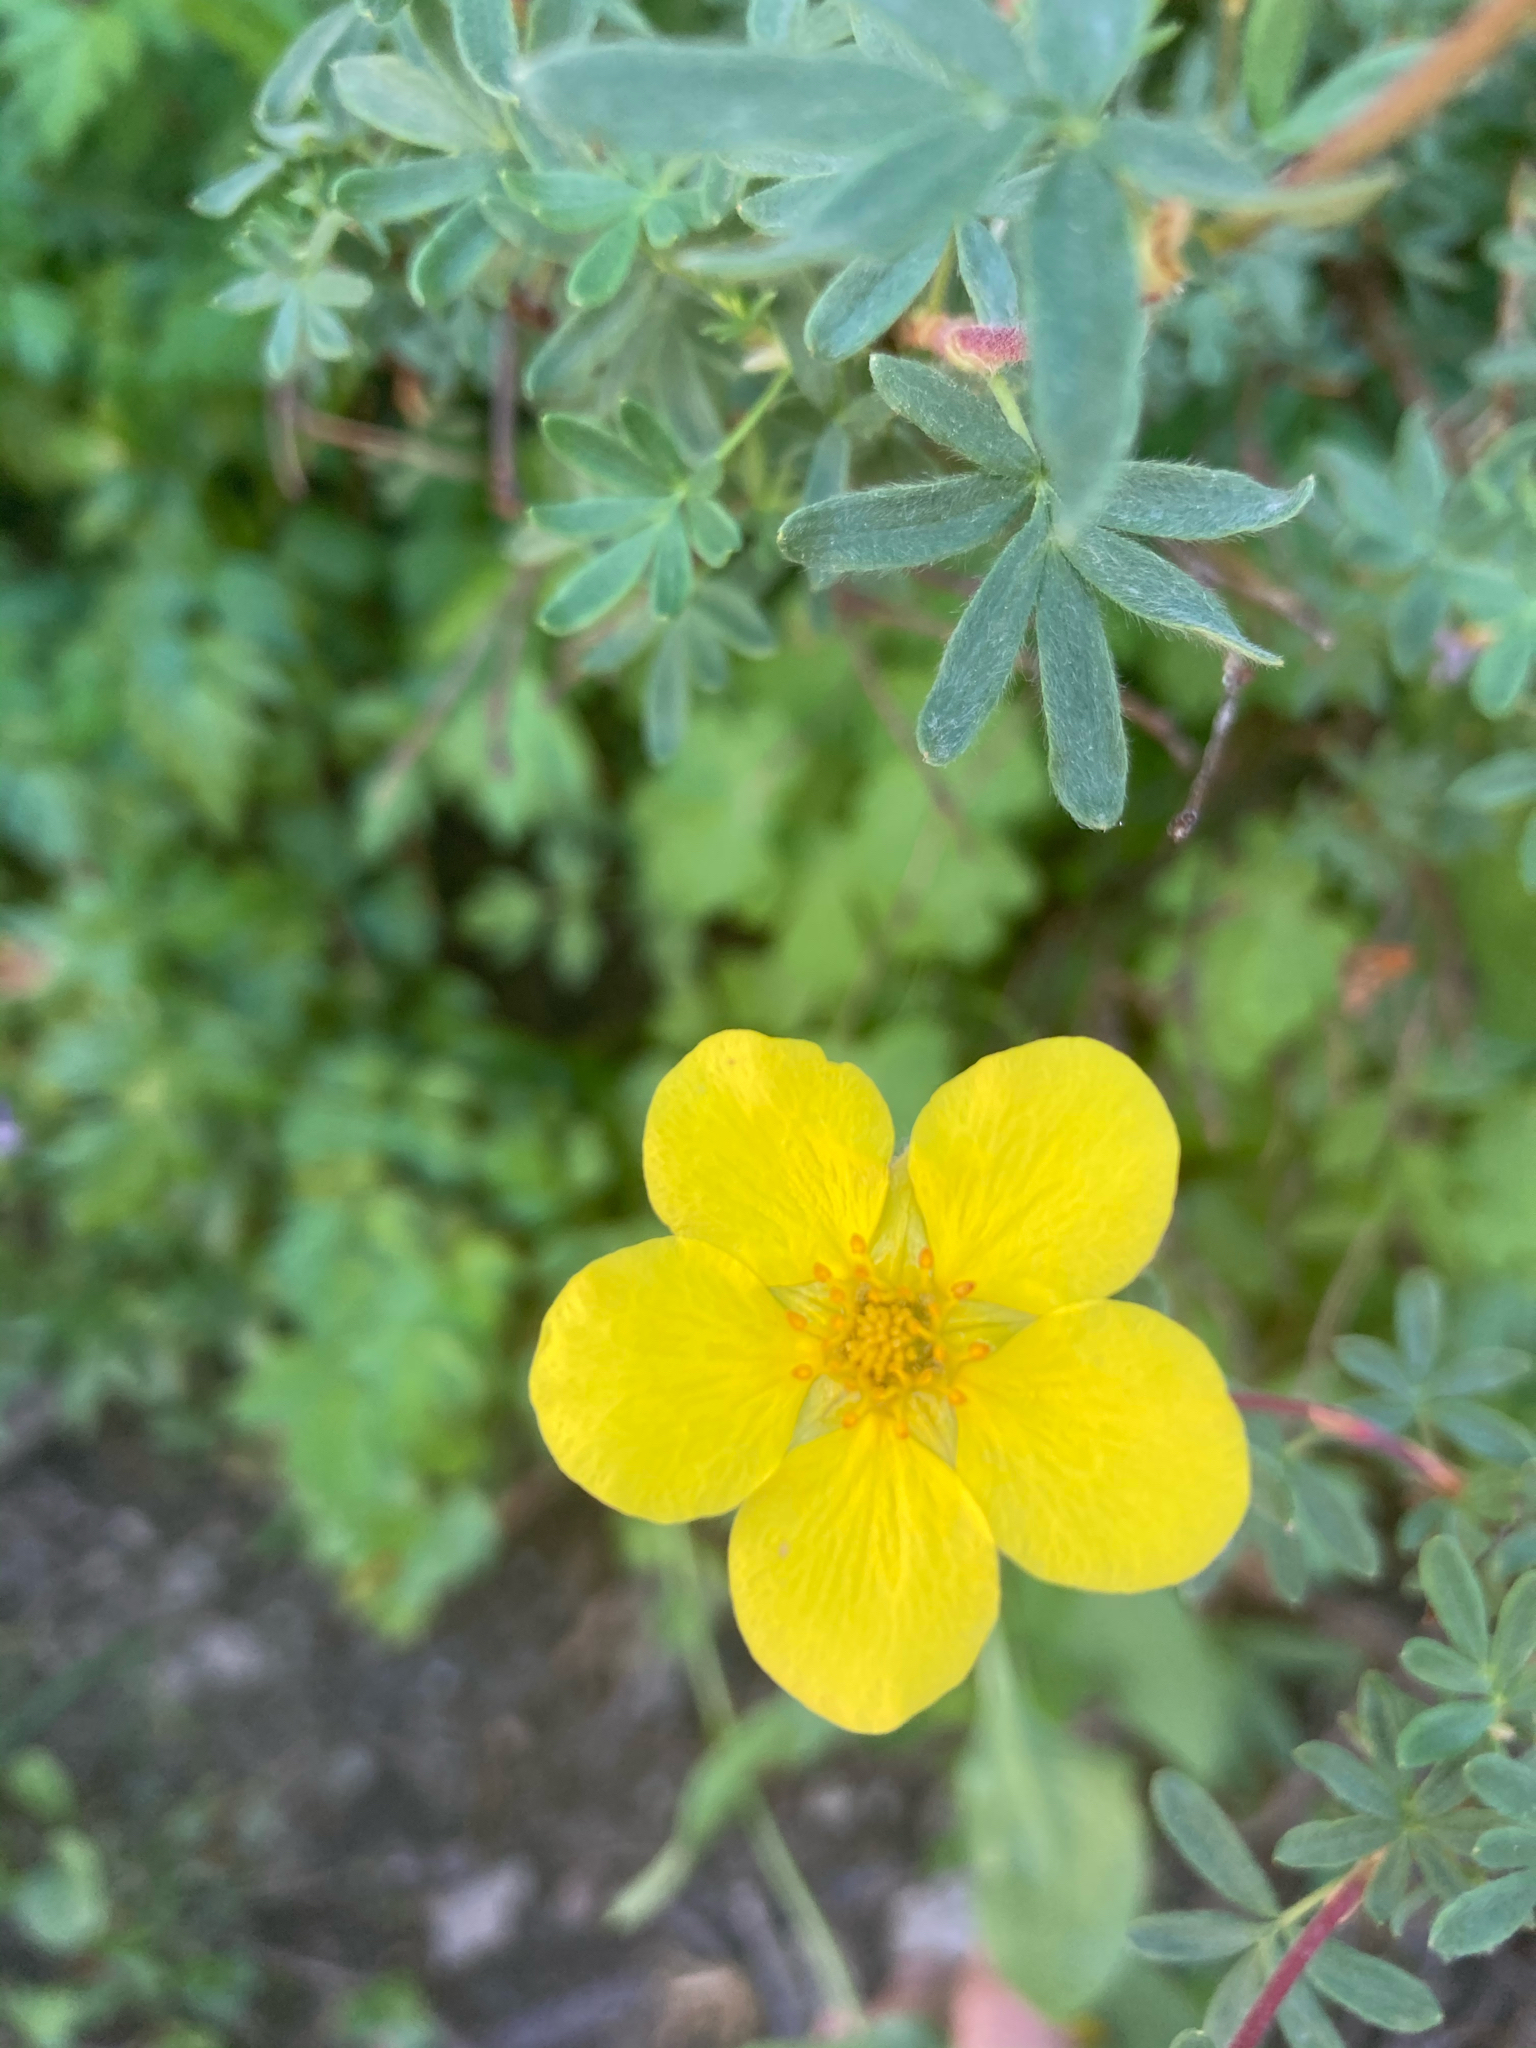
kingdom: Plantae
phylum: Tracheophyta
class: Magnoliopsida
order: Rosales
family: Rosaceae
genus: Dasiphora
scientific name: Dasiphora fruticosa
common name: Shrubby cinquefoil
